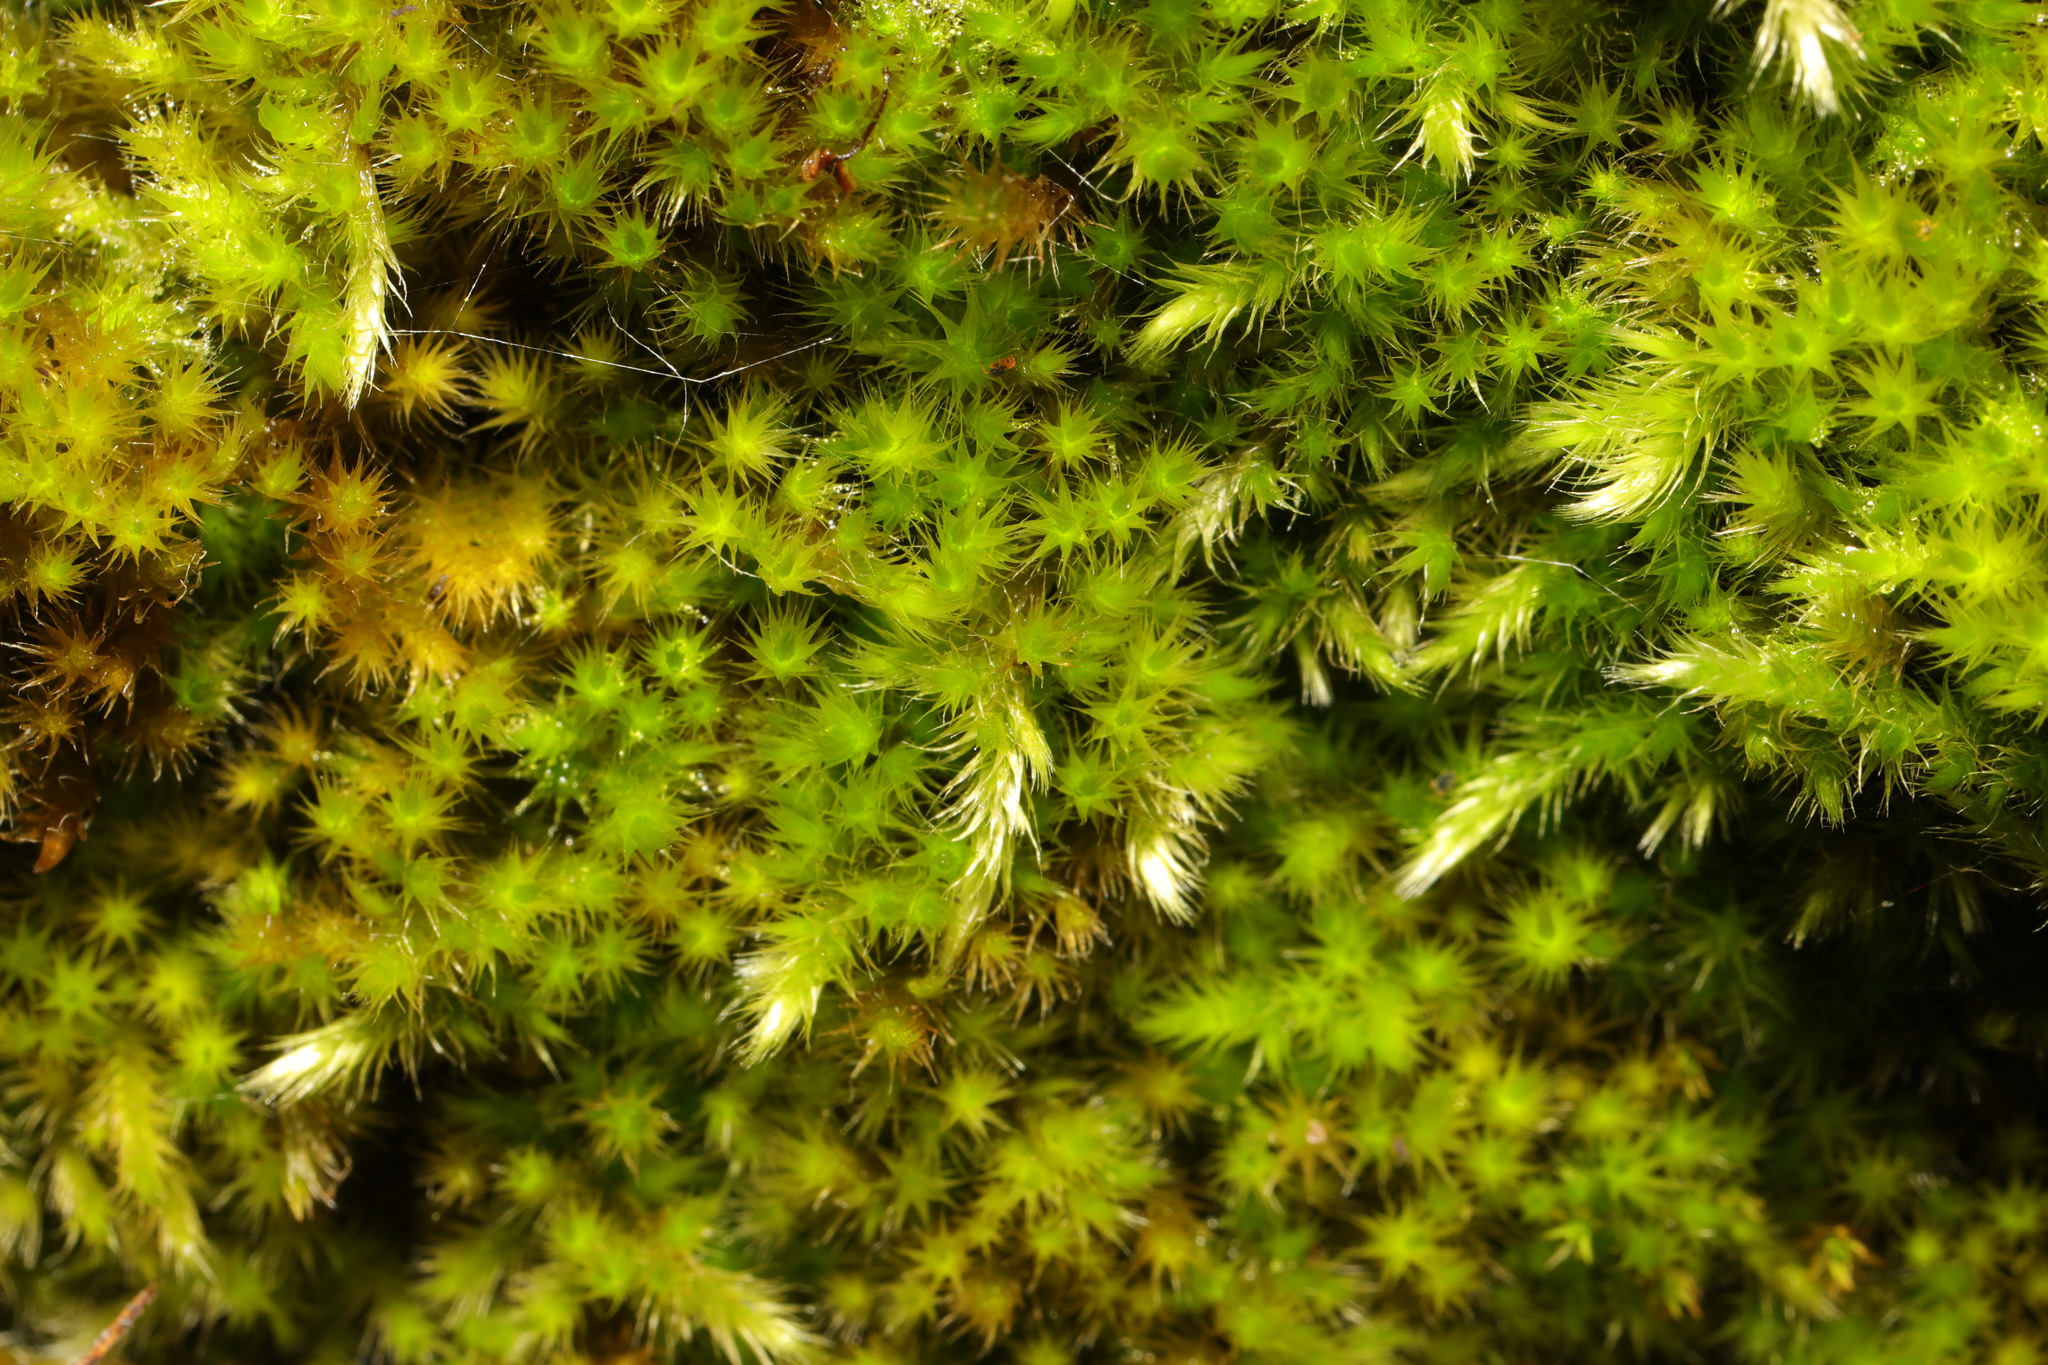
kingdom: Plantae
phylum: Bryophyta
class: Bryopsida
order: Hypnales
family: Brachytheciaceae
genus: Homalothecium
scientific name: Homalothecium sericeum
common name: Silky wall feather-moss
